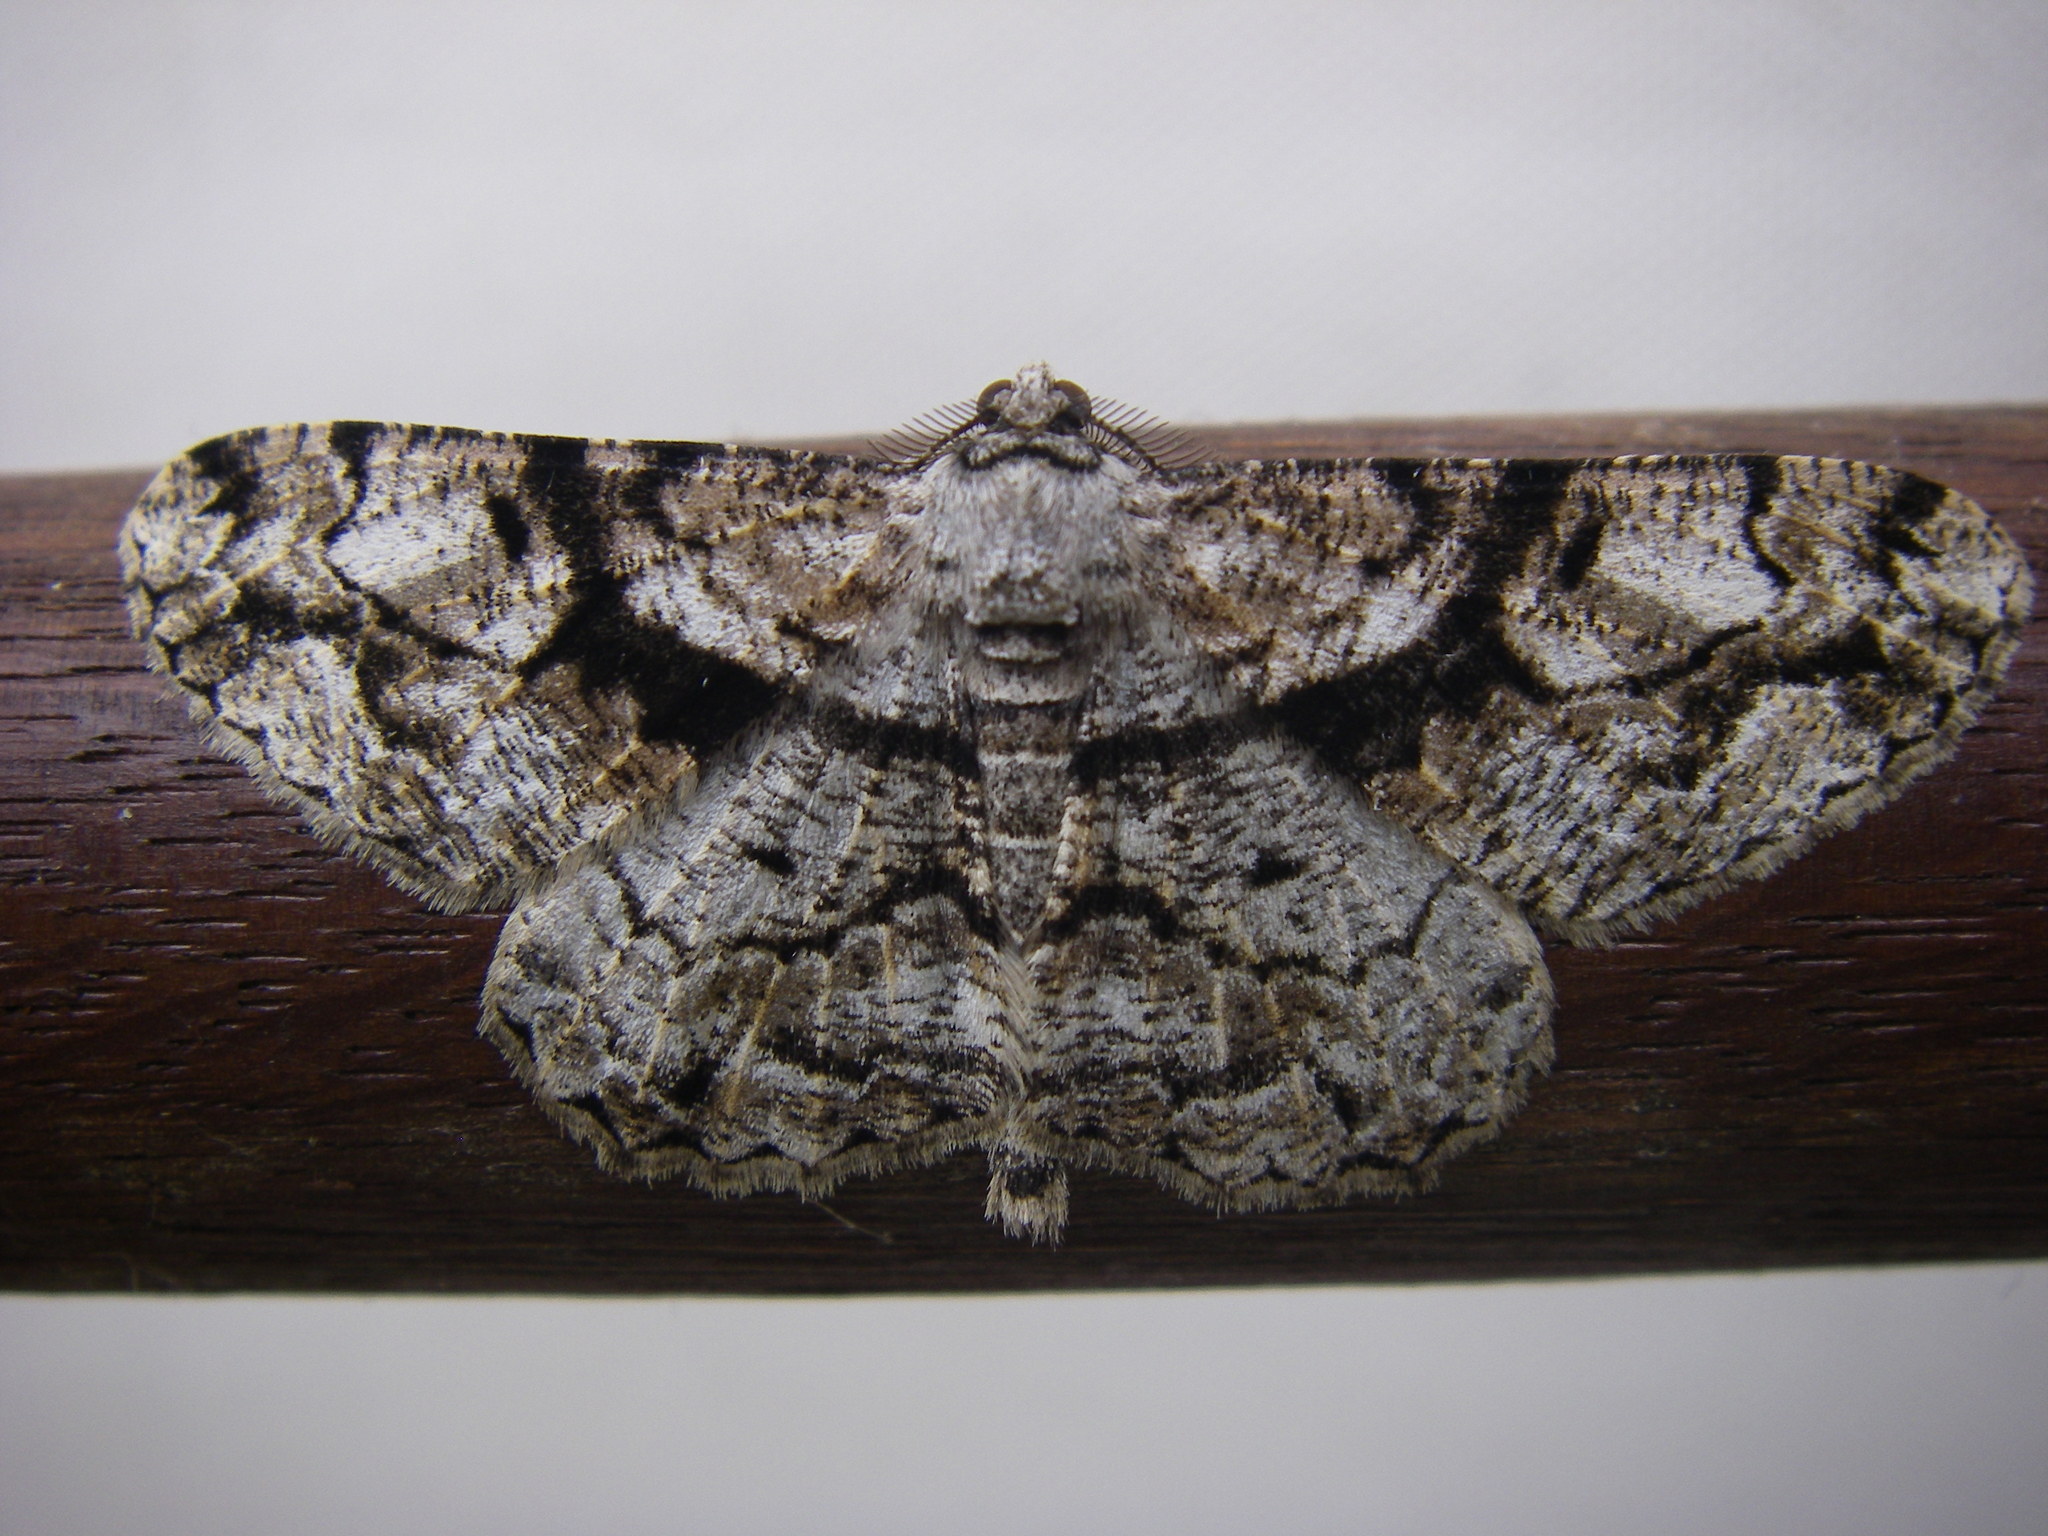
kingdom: Animalia
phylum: Arthropoda
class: Insecta
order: Lepidoptera
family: Geometridae
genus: Peribatodes
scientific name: Peribatodes umbraria
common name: Olive-tree beauty
